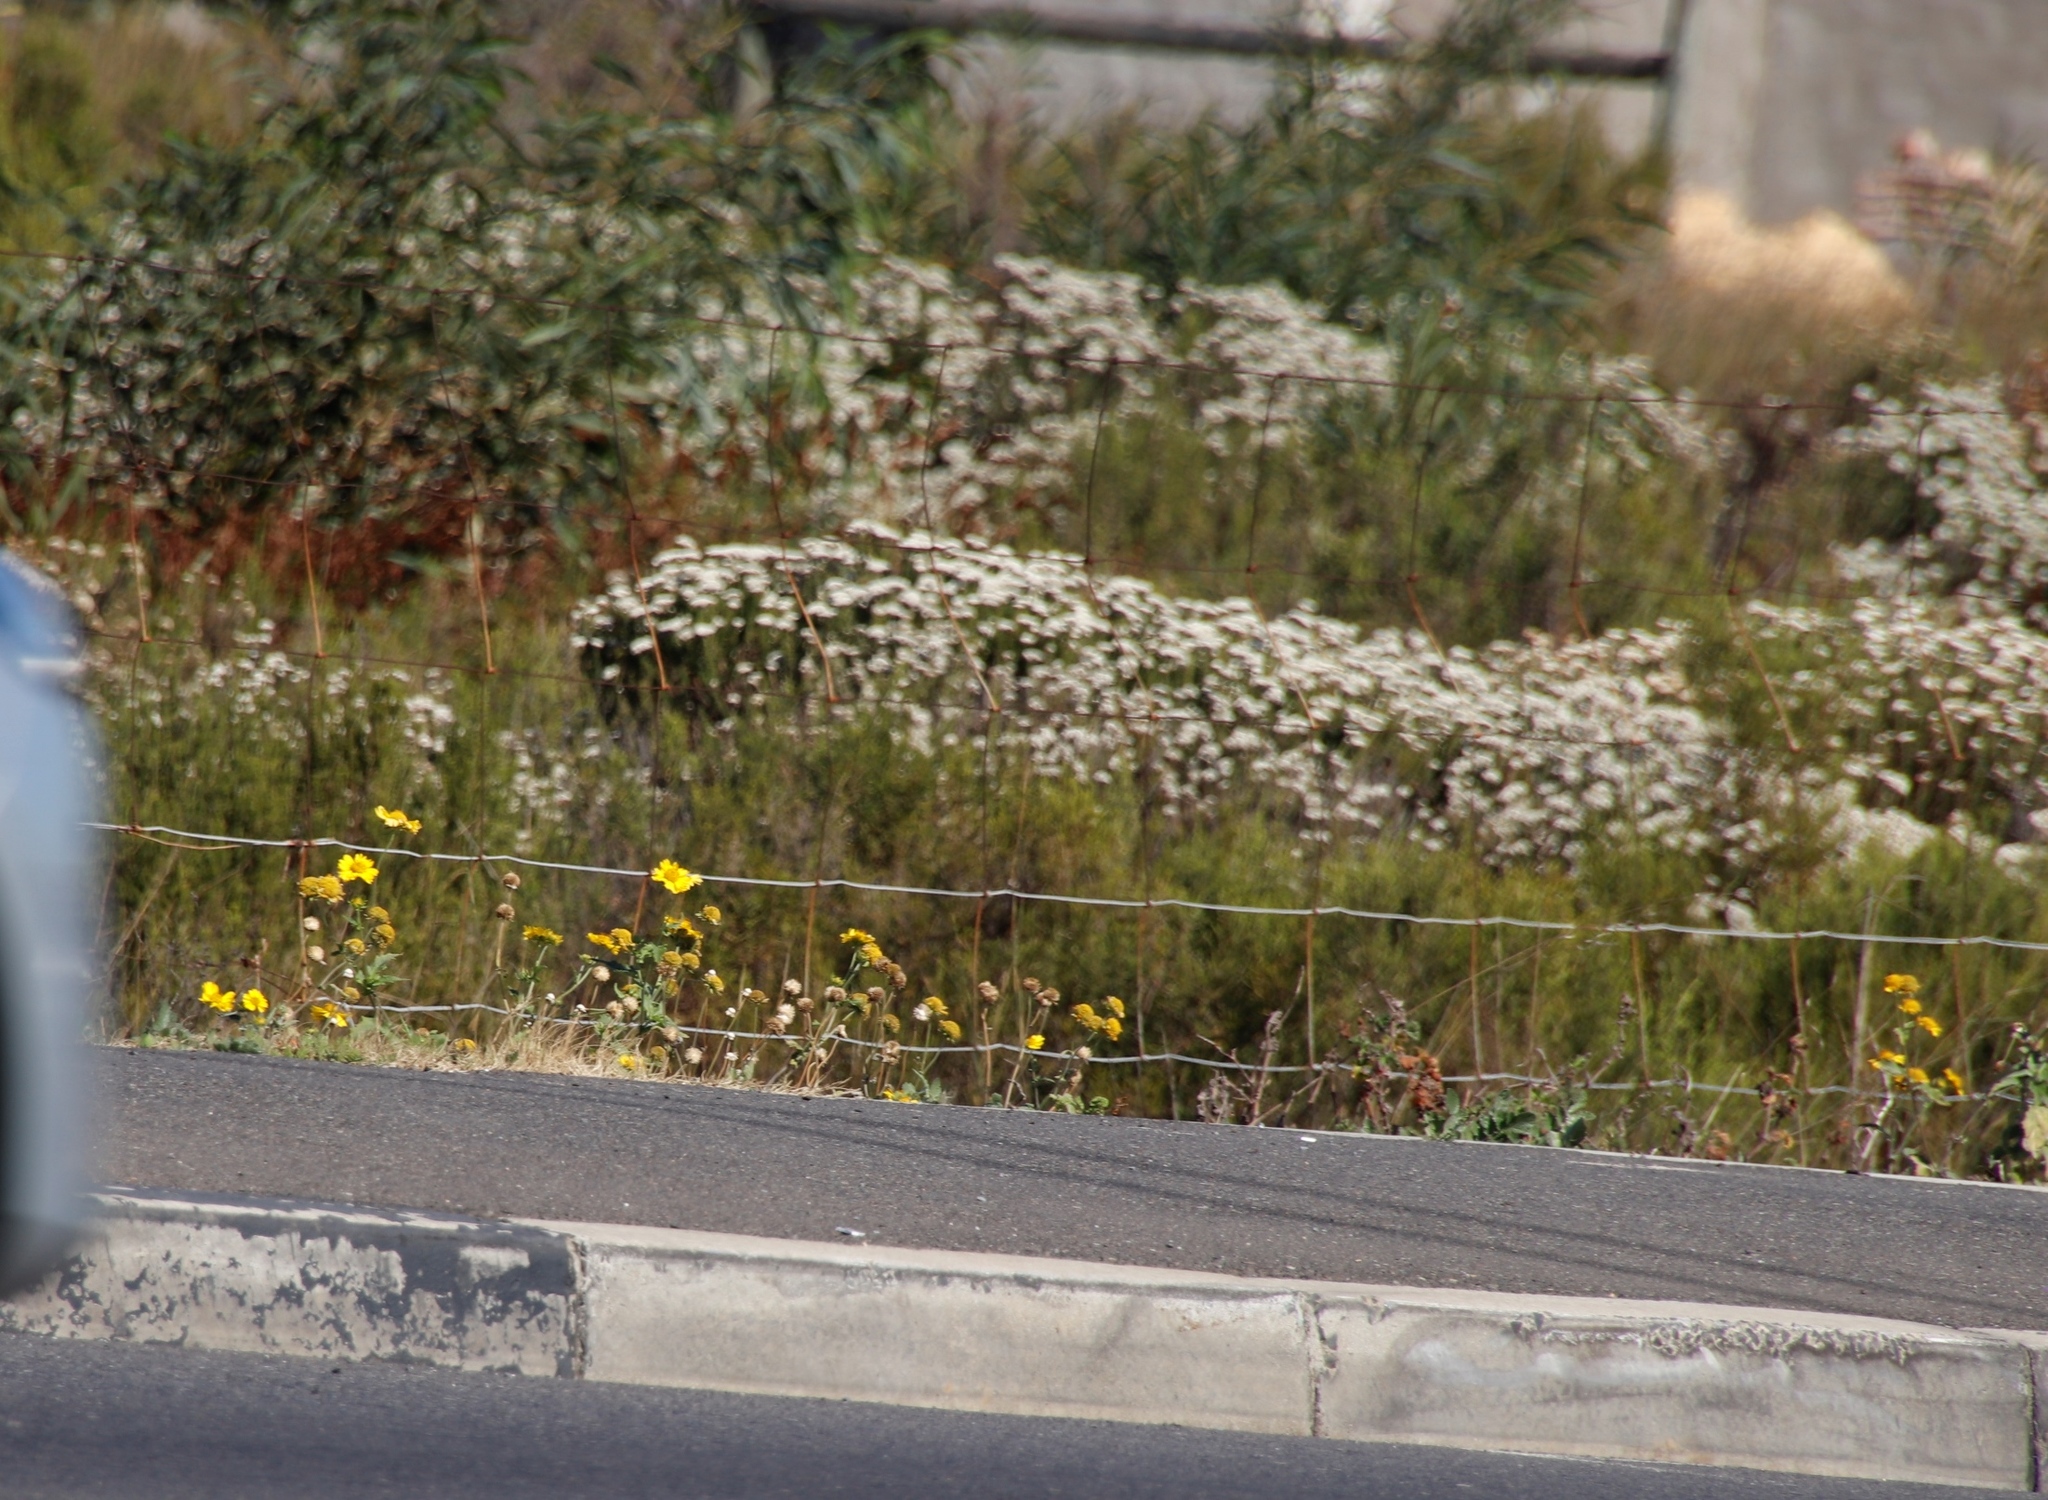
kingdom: Plantae
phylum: Tracheophyta
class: Magnoliopsida
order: Asterales
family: Asteraceae
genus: Verbesina
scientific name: Verbesina encelioides
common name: Golden crownbeard
